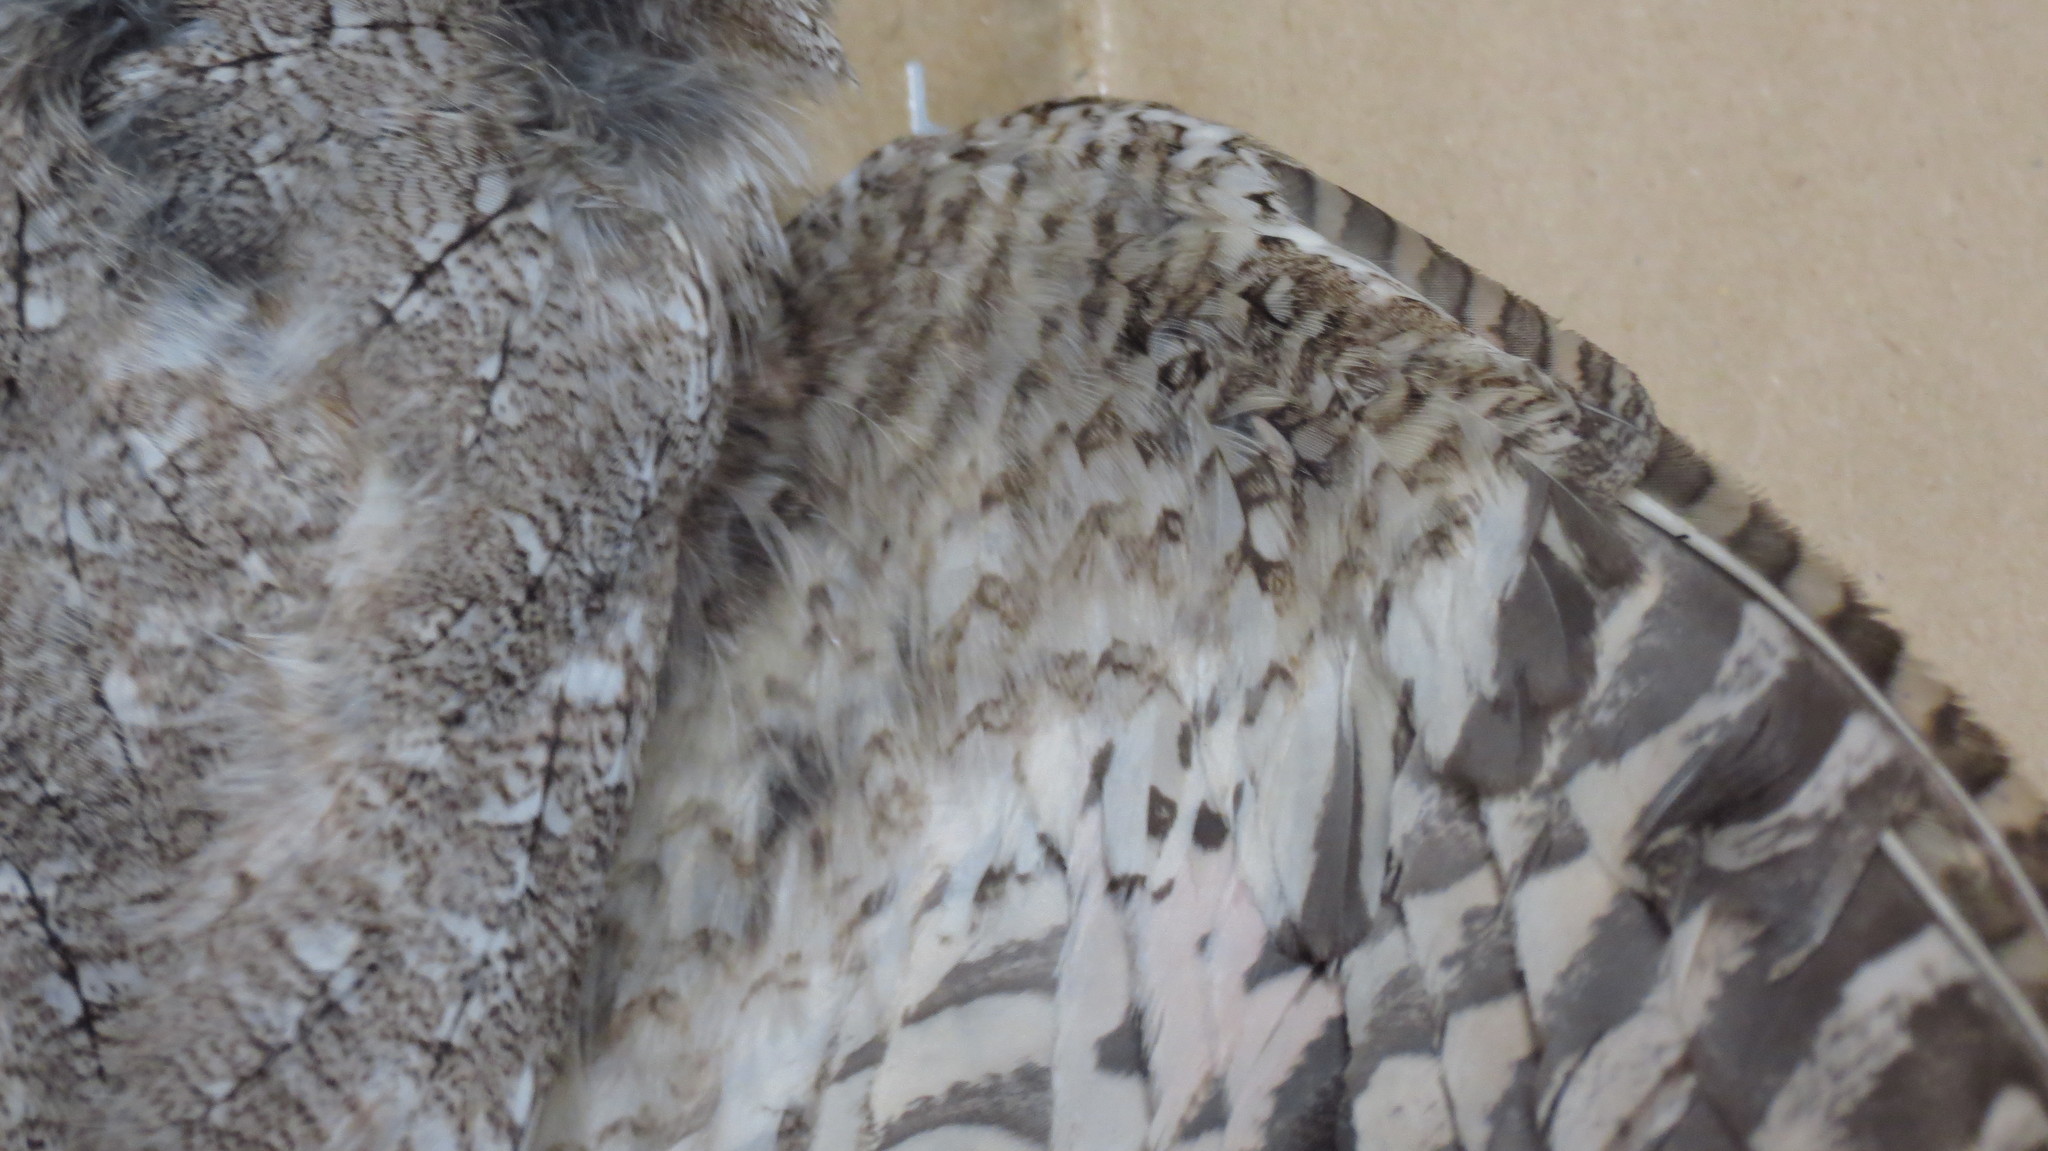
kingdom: Animalia
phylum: Chordata
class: Aves
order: Strigiformes
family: Strigidae
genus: Megascops
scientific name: Megascops cooperi
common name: Pacific screech-owl
